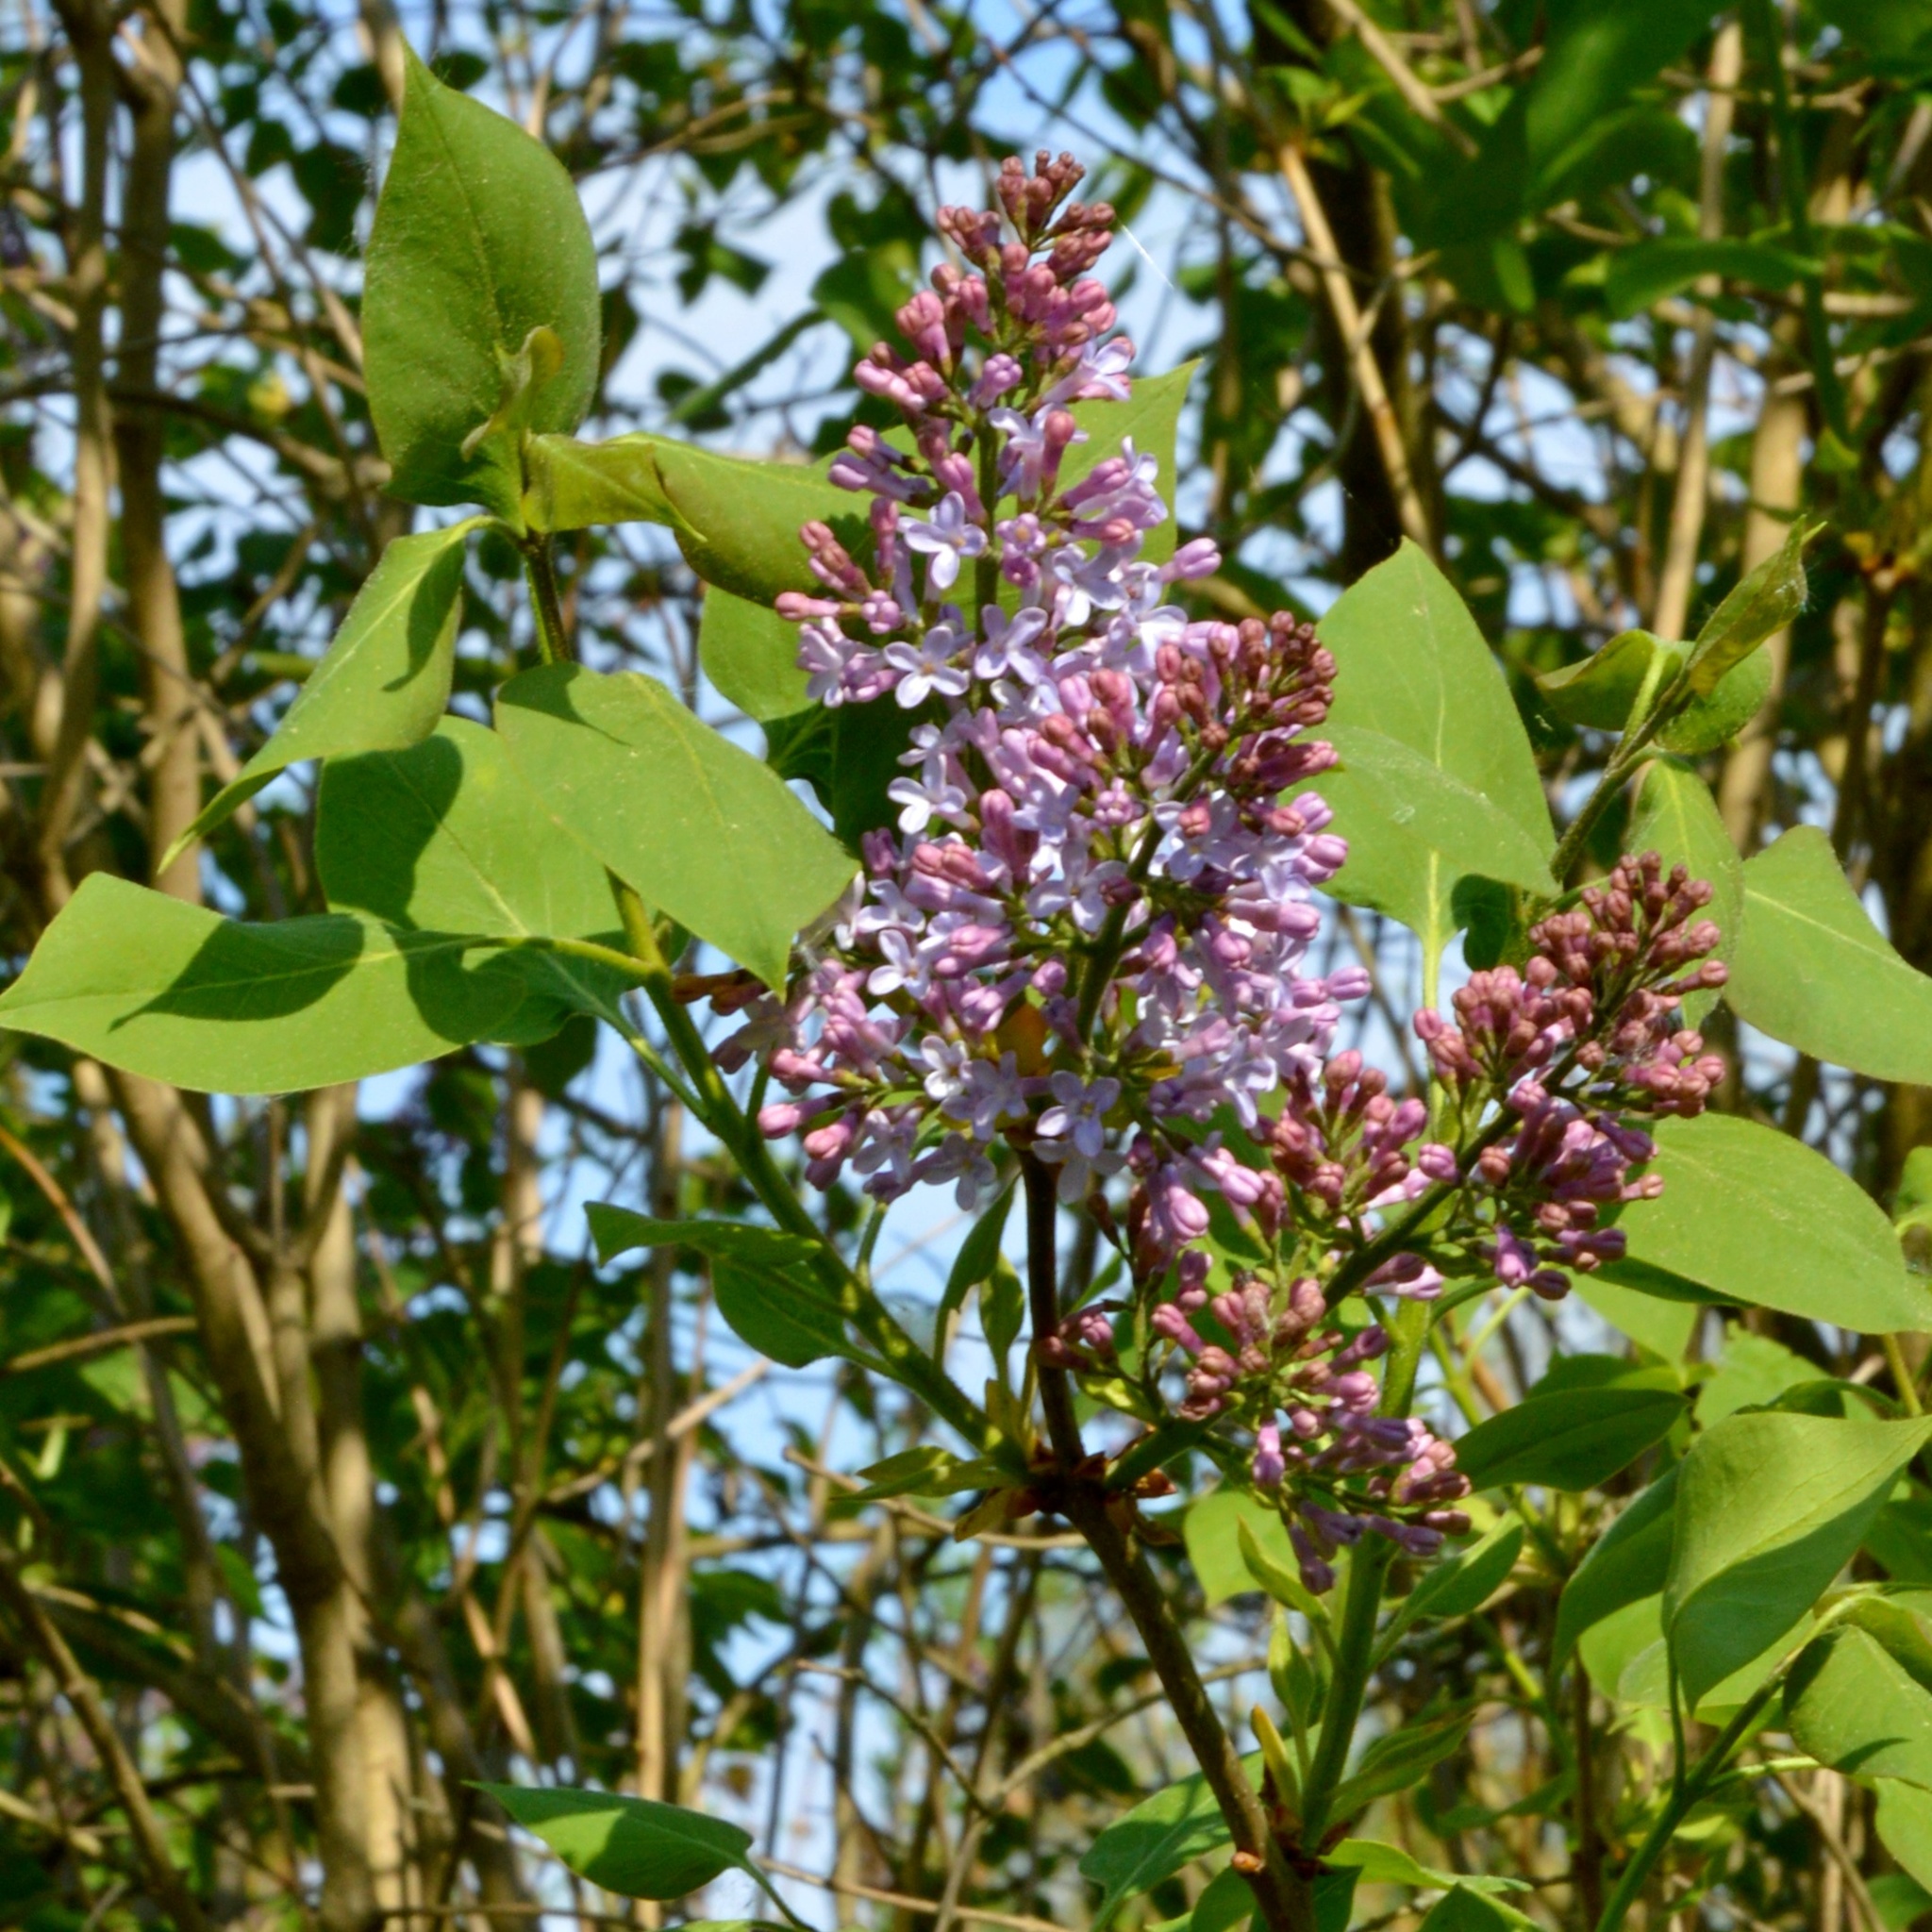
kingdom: Plantae
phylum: Tracheophyta
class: Magnoliopsida
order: Lamiales
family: Oleaceae
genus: Syringa
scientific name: Syringa vulgaris
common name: Common lilac
